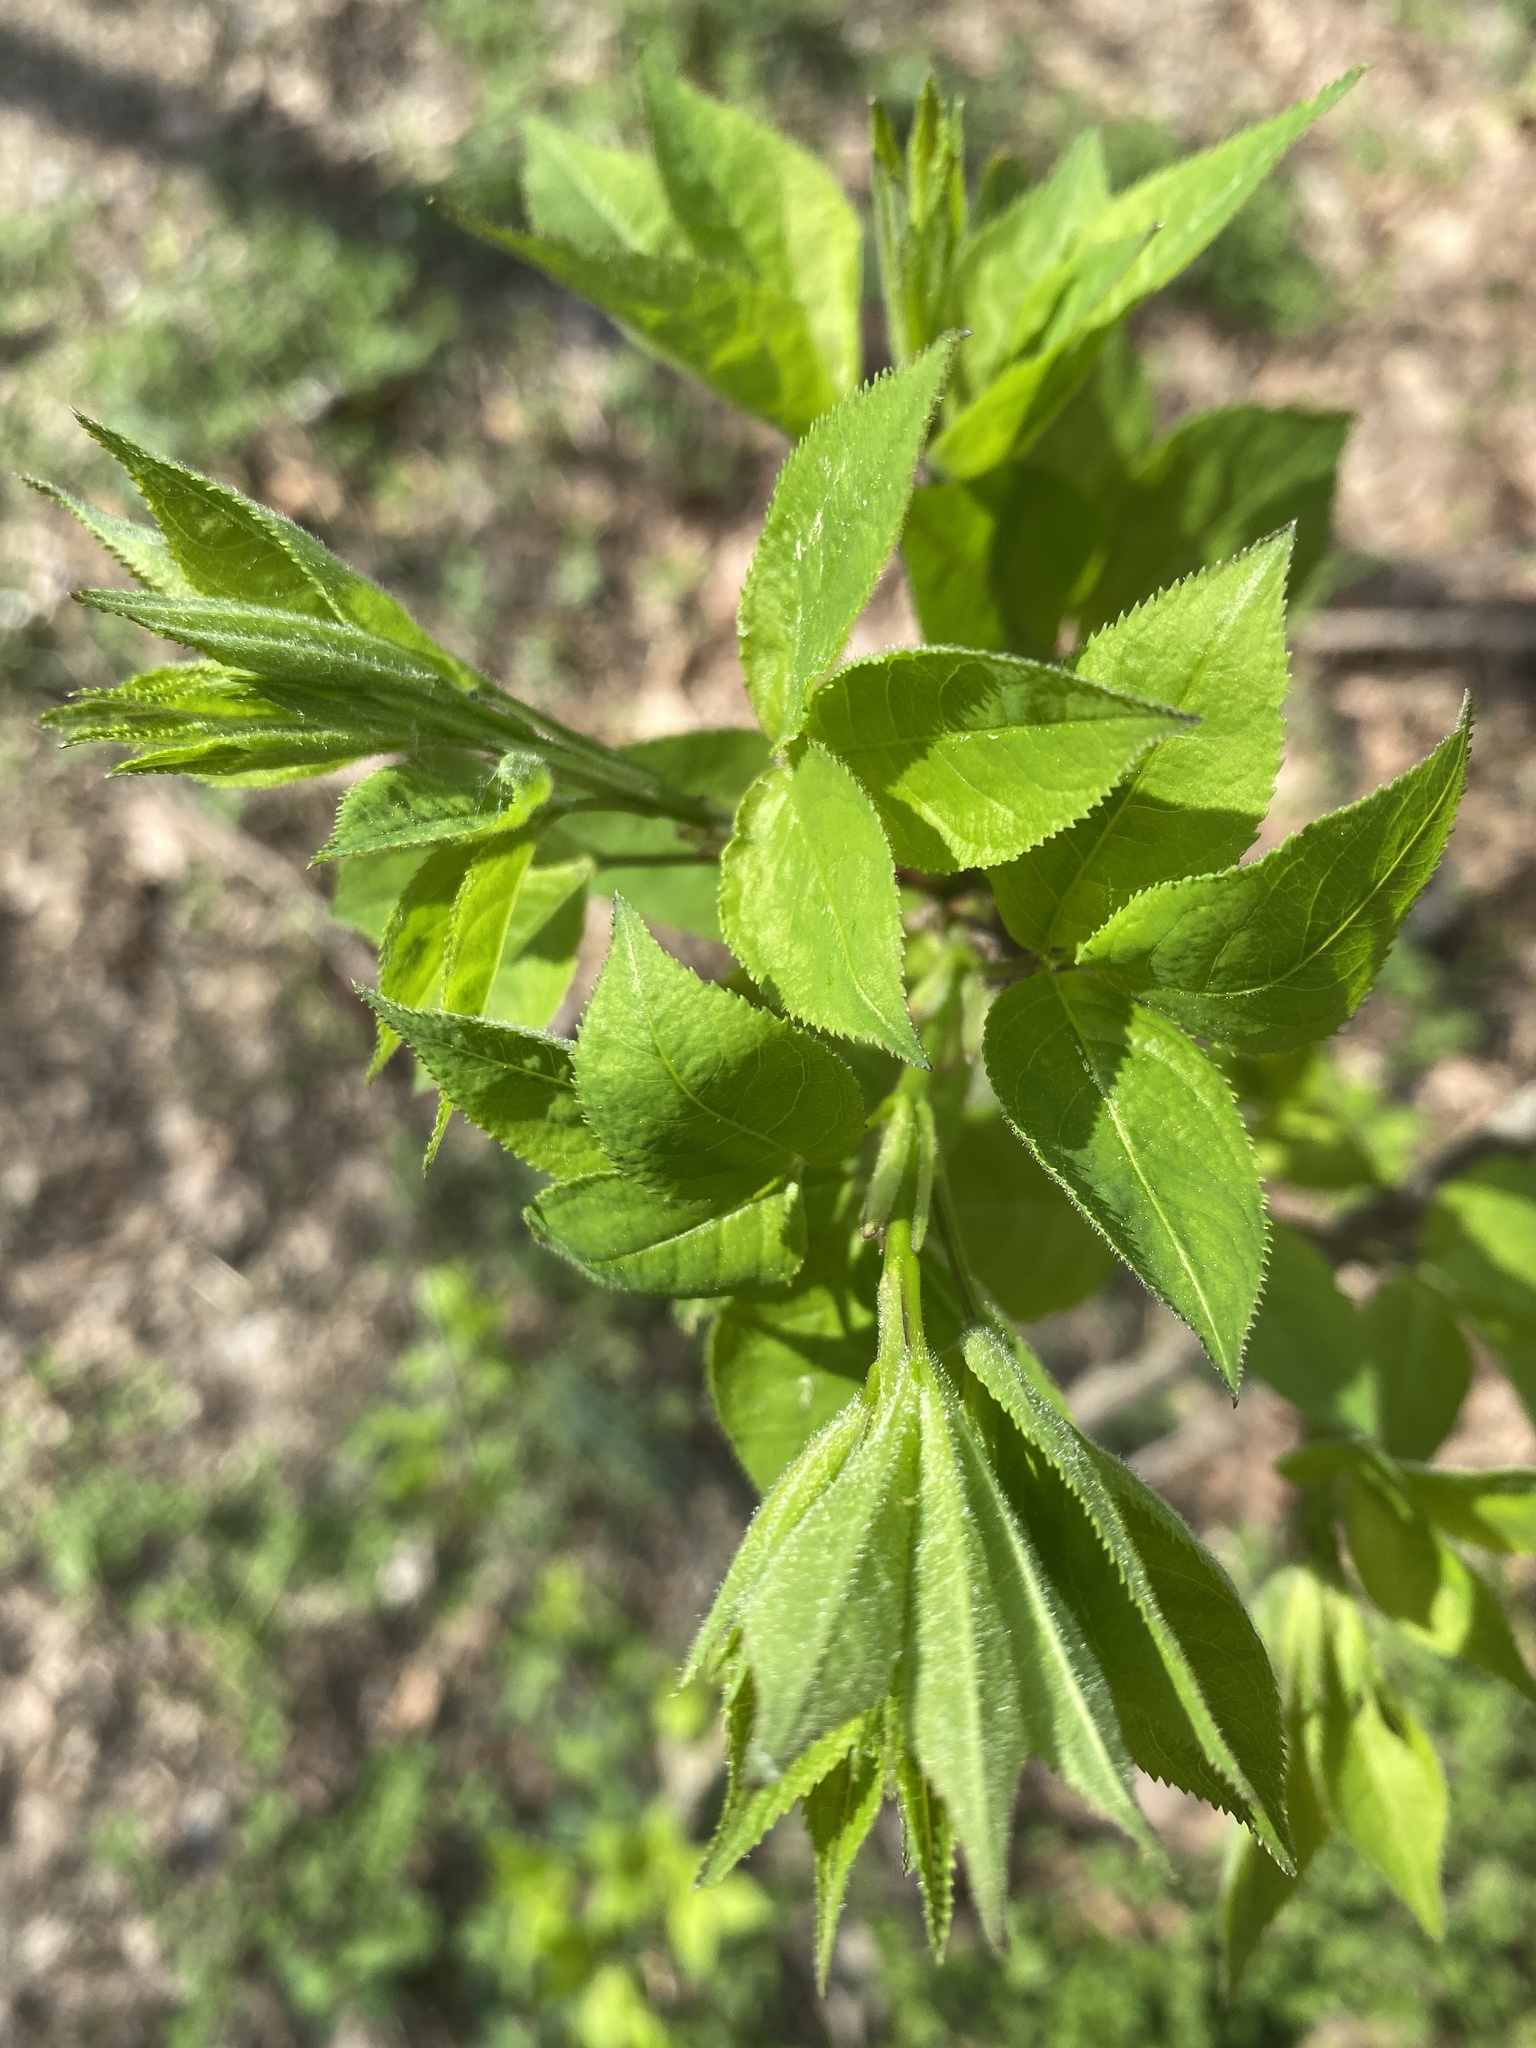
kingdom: Plantae
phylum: Tracheophyta
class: Magnoliopsida
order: Crossosomatales
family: Staphyleaceae
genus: Staphylea
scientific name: Staphylea trifolia
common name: American bladdernut
